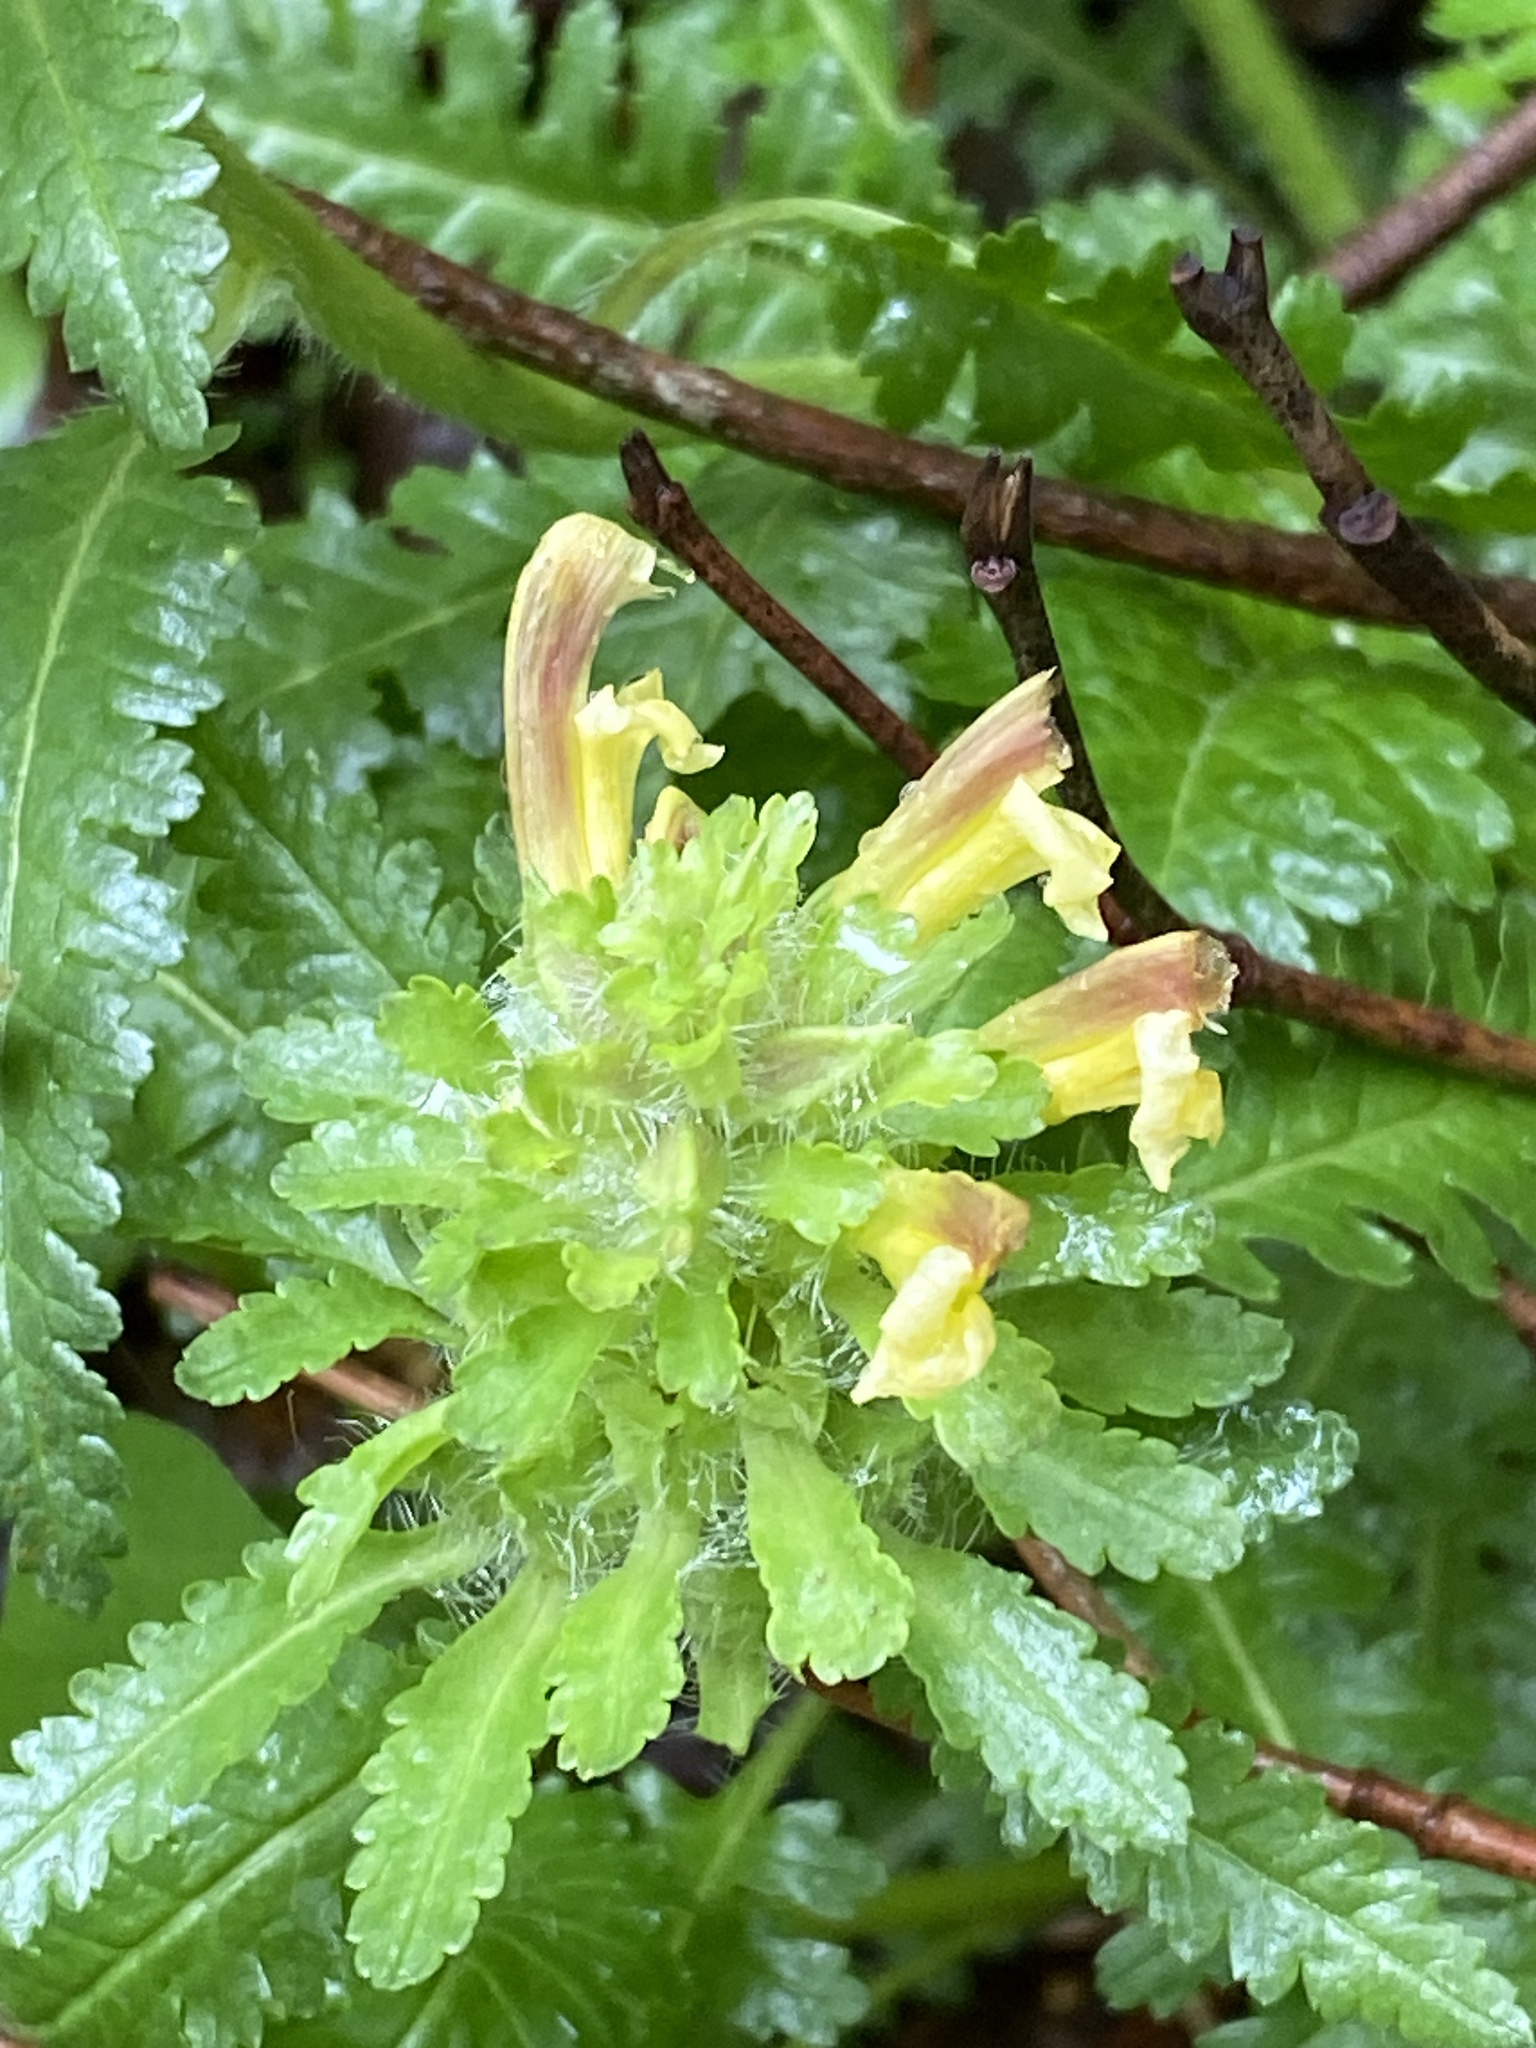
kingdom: Plantae
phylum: Tracheophyta
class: Magnoliopsida
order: Lamiales
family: Orobanchaceae
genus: Pedicularis
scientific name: Pedicularis canadensis
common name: Early lousewort
